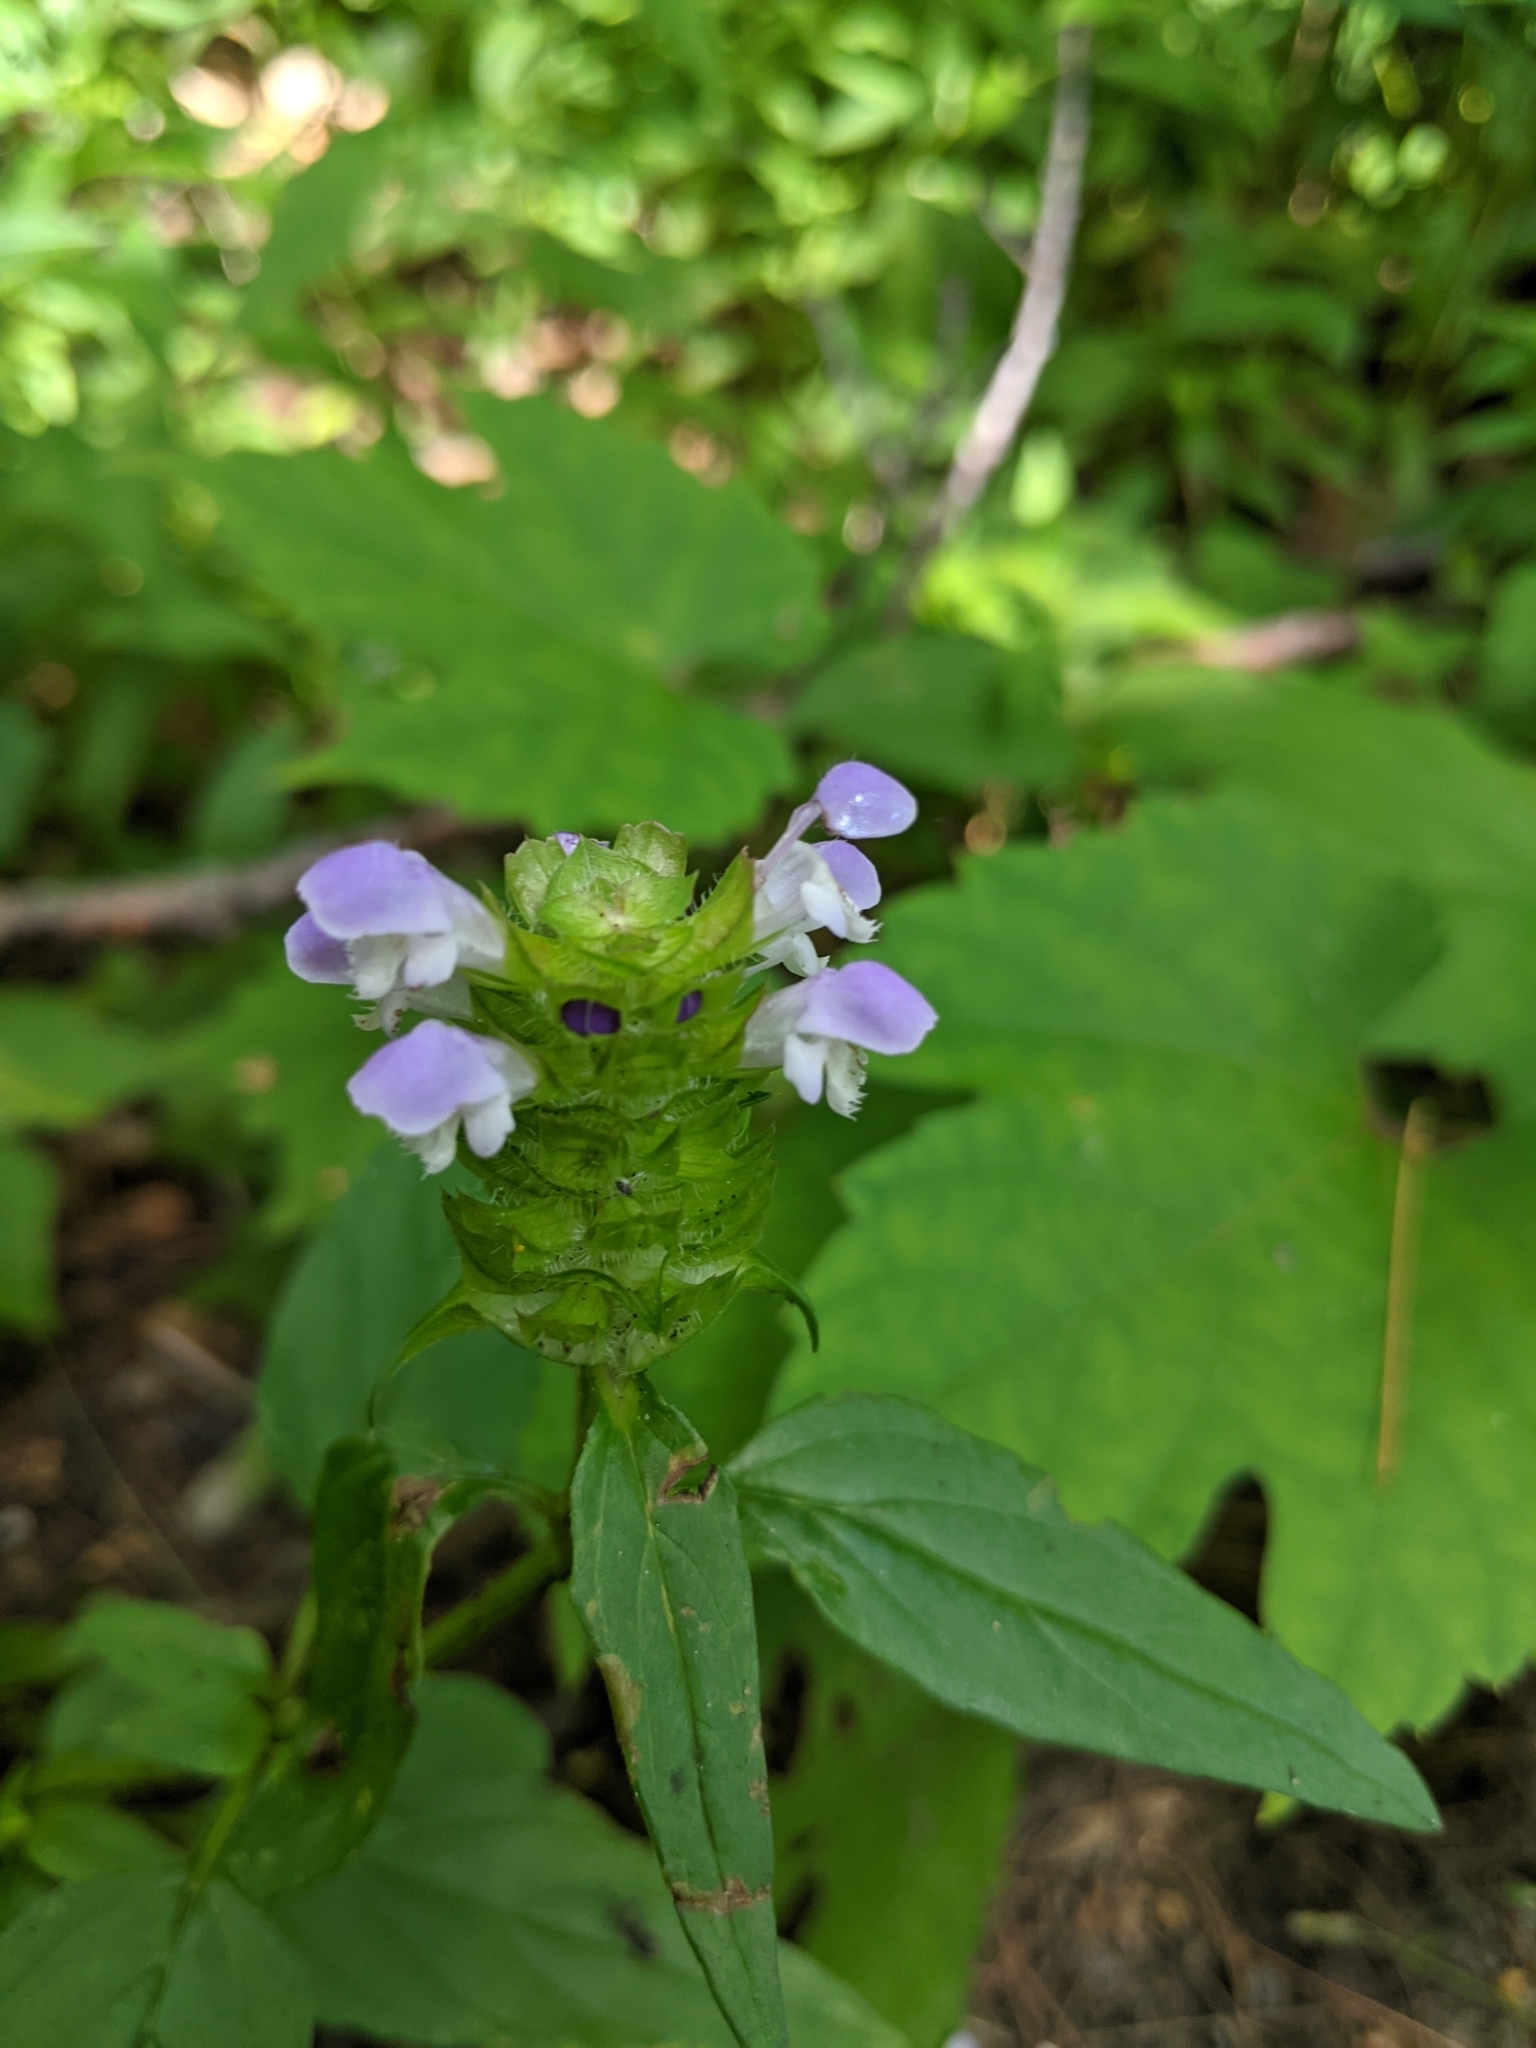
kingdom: Plantae
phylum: Tracheophyta
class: Magnoliopsida
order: Lamiales
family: Lamiaceae
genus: Prunella
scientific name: Prunella vulgaris
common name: Heal-all
